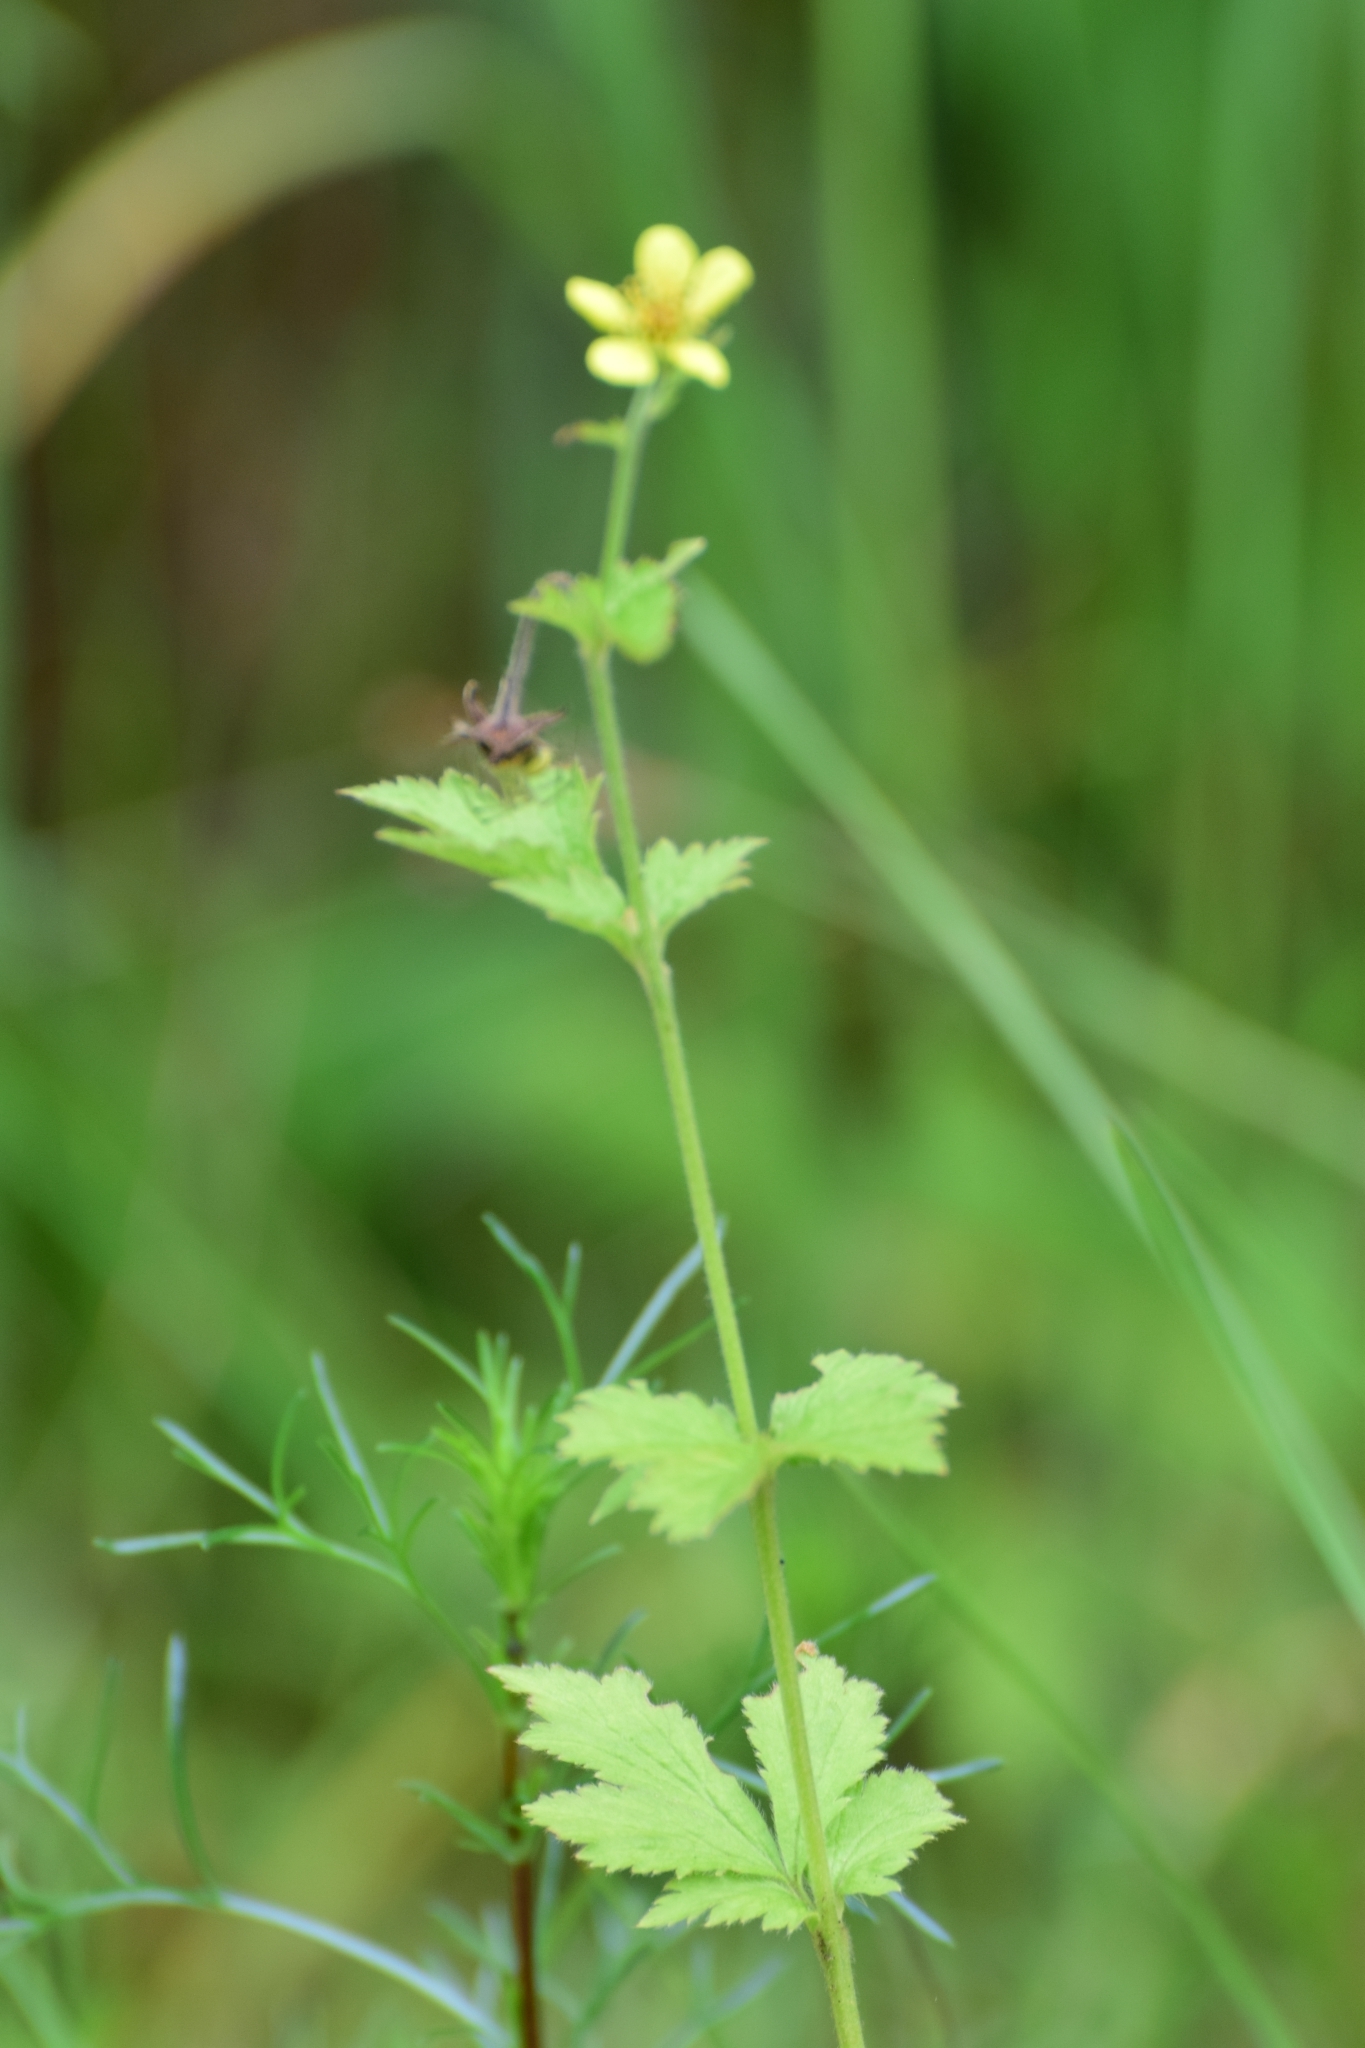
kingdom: Plantae
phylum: Tracheophyta
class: Magnoliopsida
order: Rosales
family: Rosaceae
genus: Geum
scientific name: Geum urbanum
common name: Wood avens
